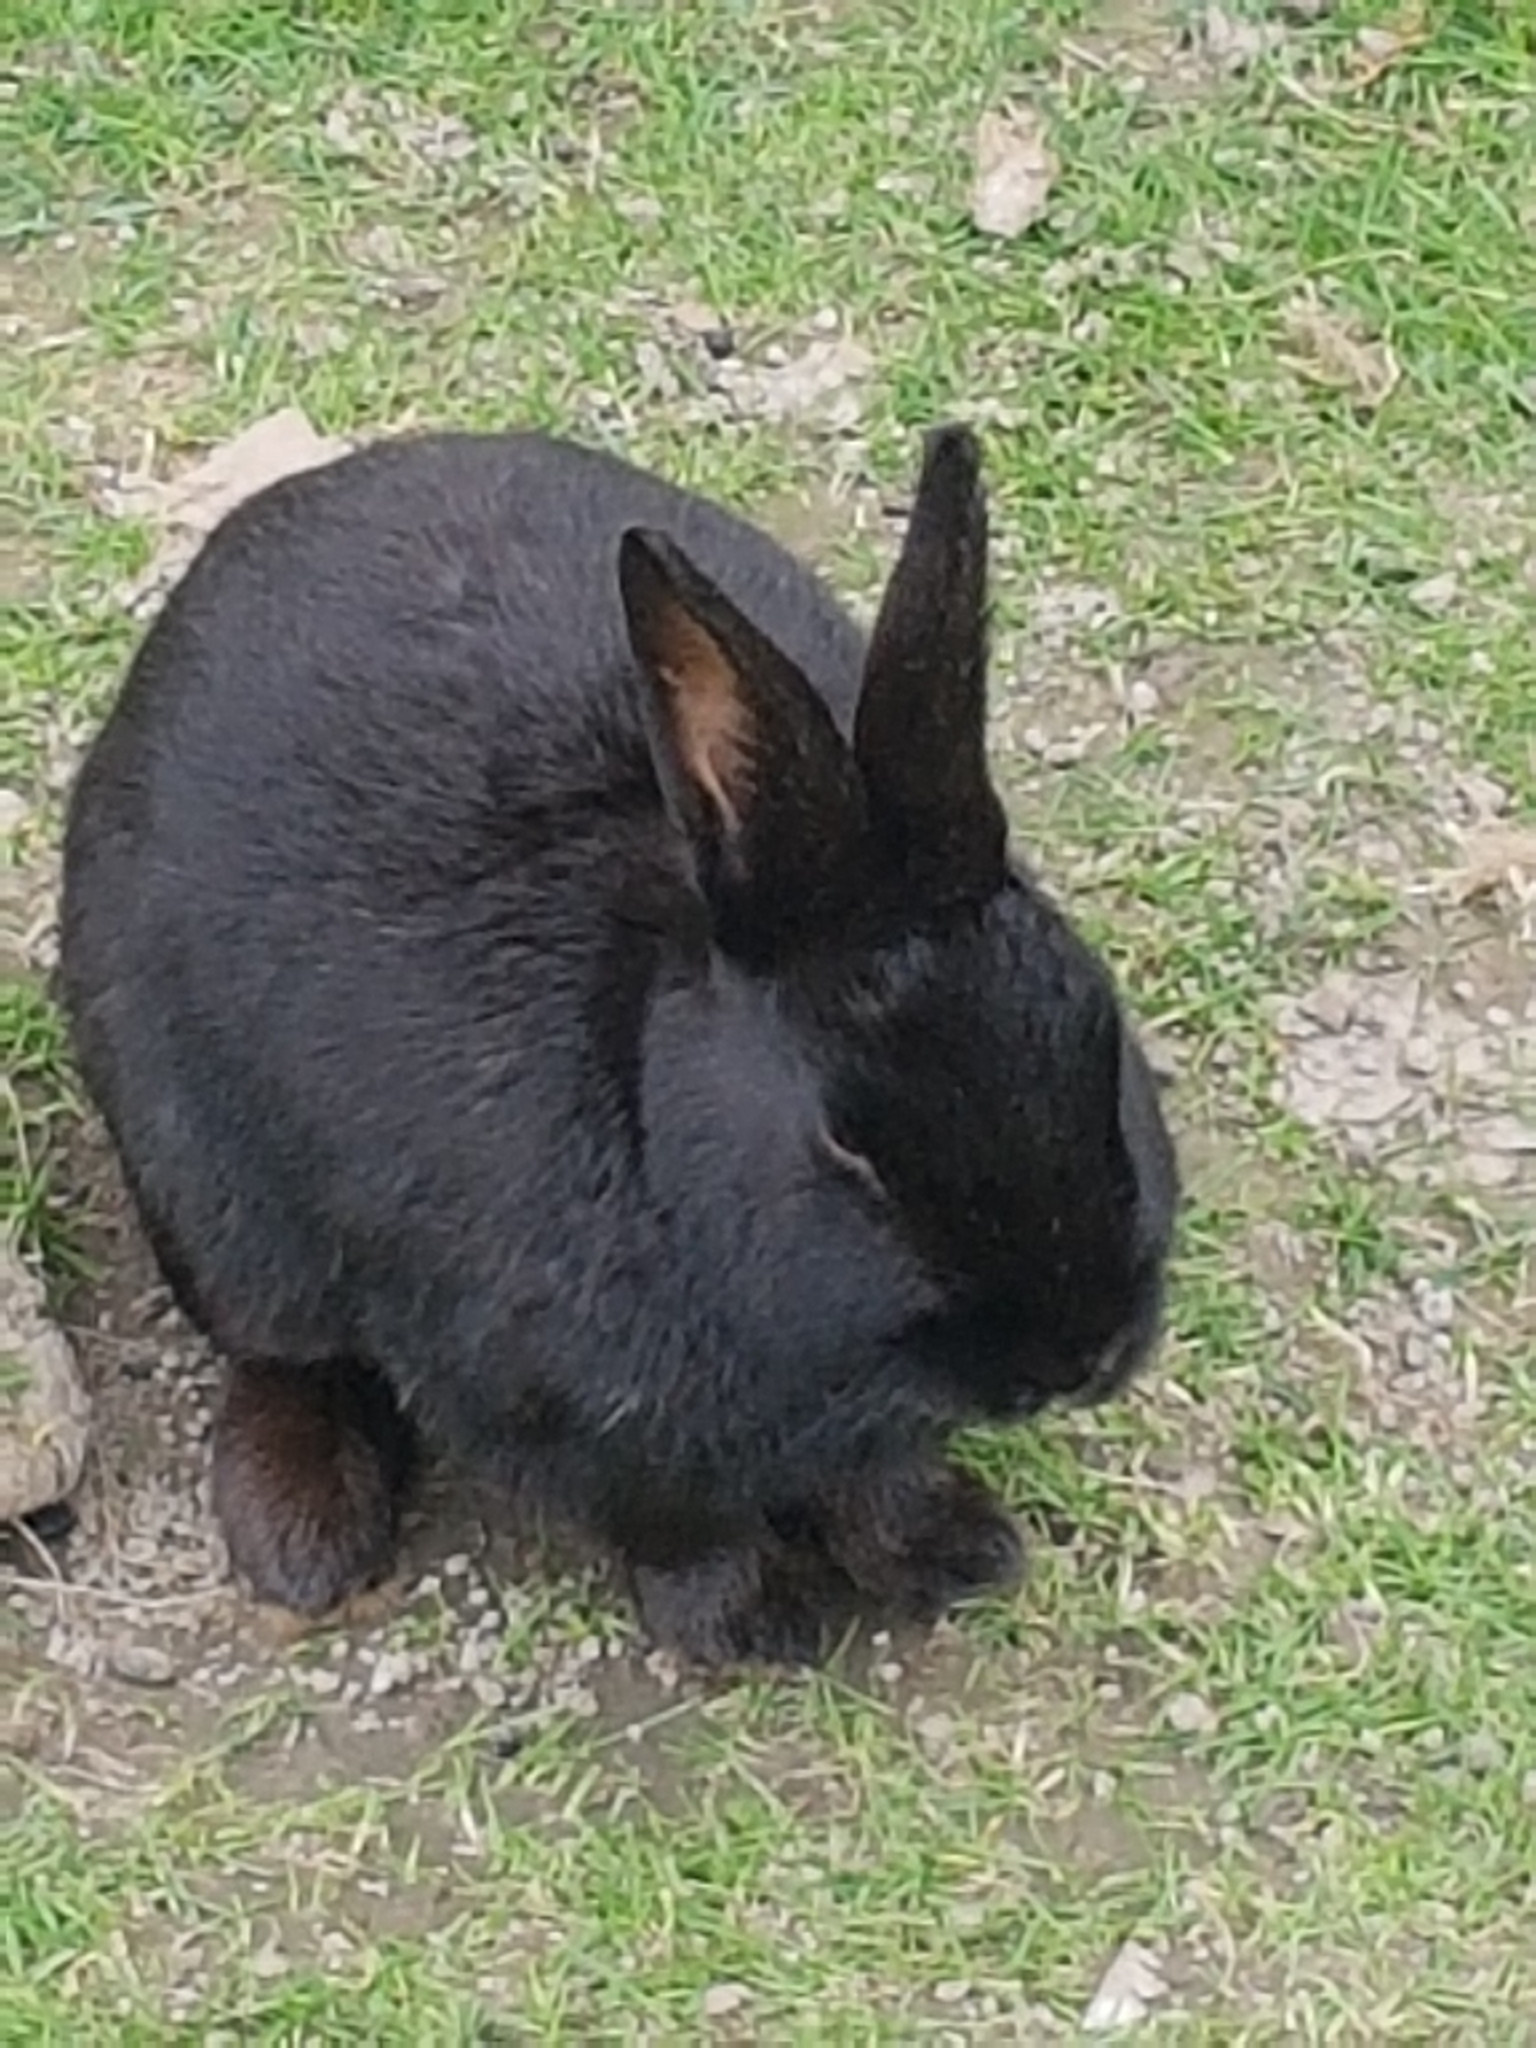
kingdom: Animalia
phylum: Chordata
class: Mammalia
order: Lagomorpha
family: Leporidae
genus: Oryctolagus
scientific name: Oryctolagus cuniculus
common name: European rabbit
